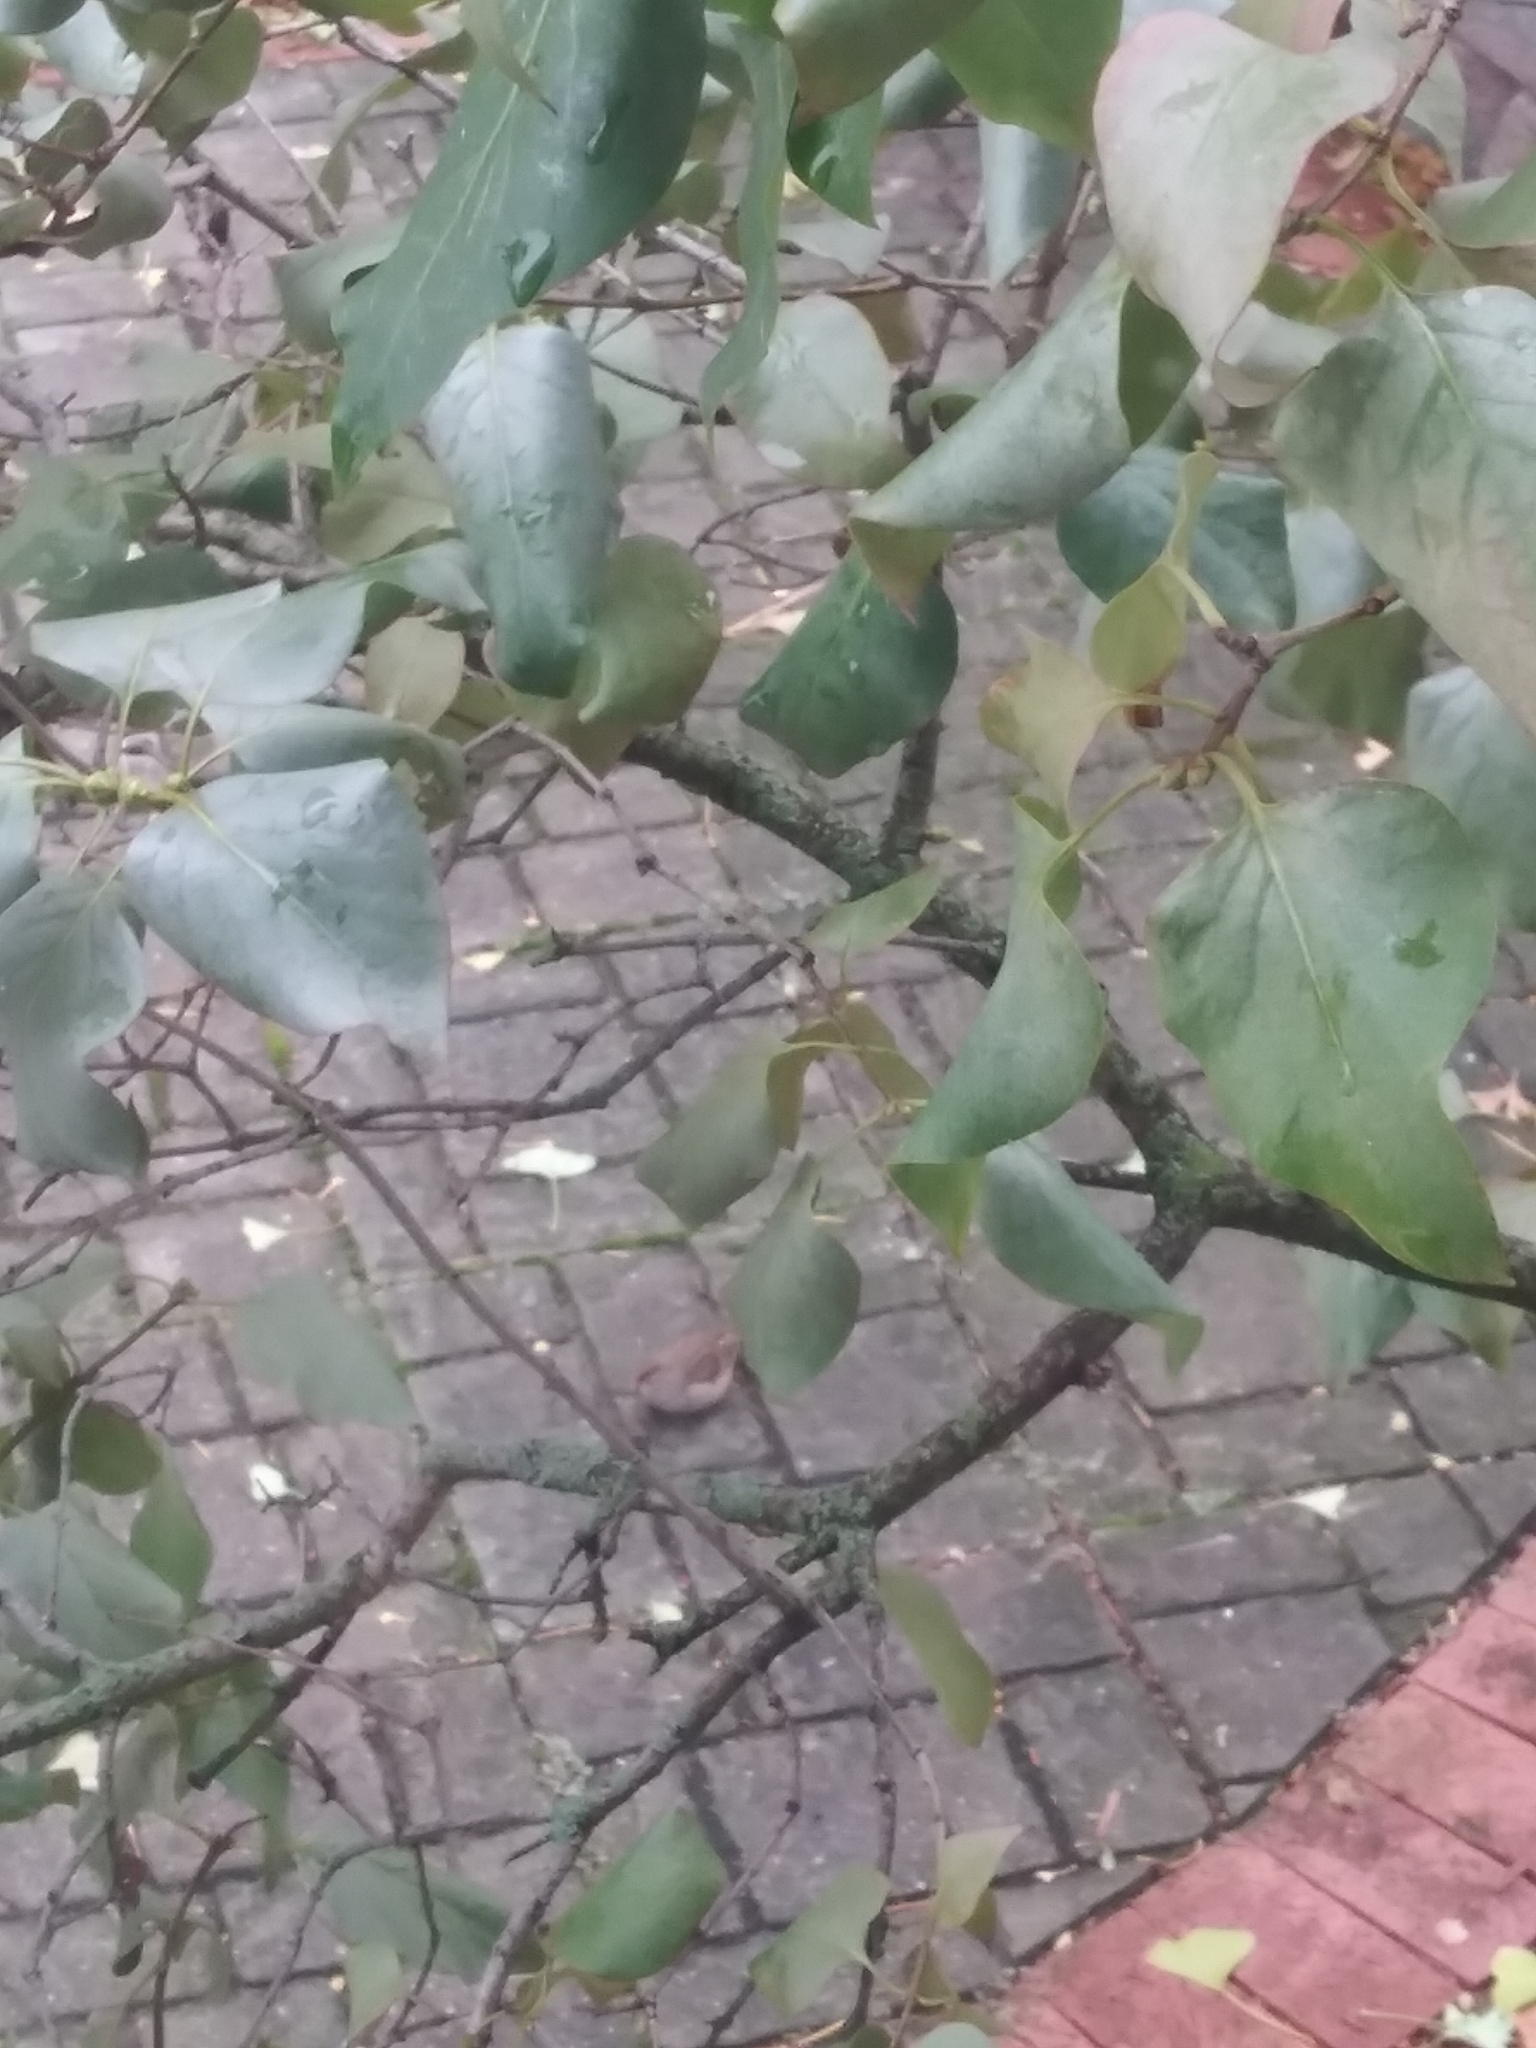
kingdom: Animalia
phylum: Chordata
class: Aves
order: Passeriformes
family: Passerellidae
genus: Zonotrichia
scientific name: Zonotrichia leucophrys
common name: White-crowned sparrow
